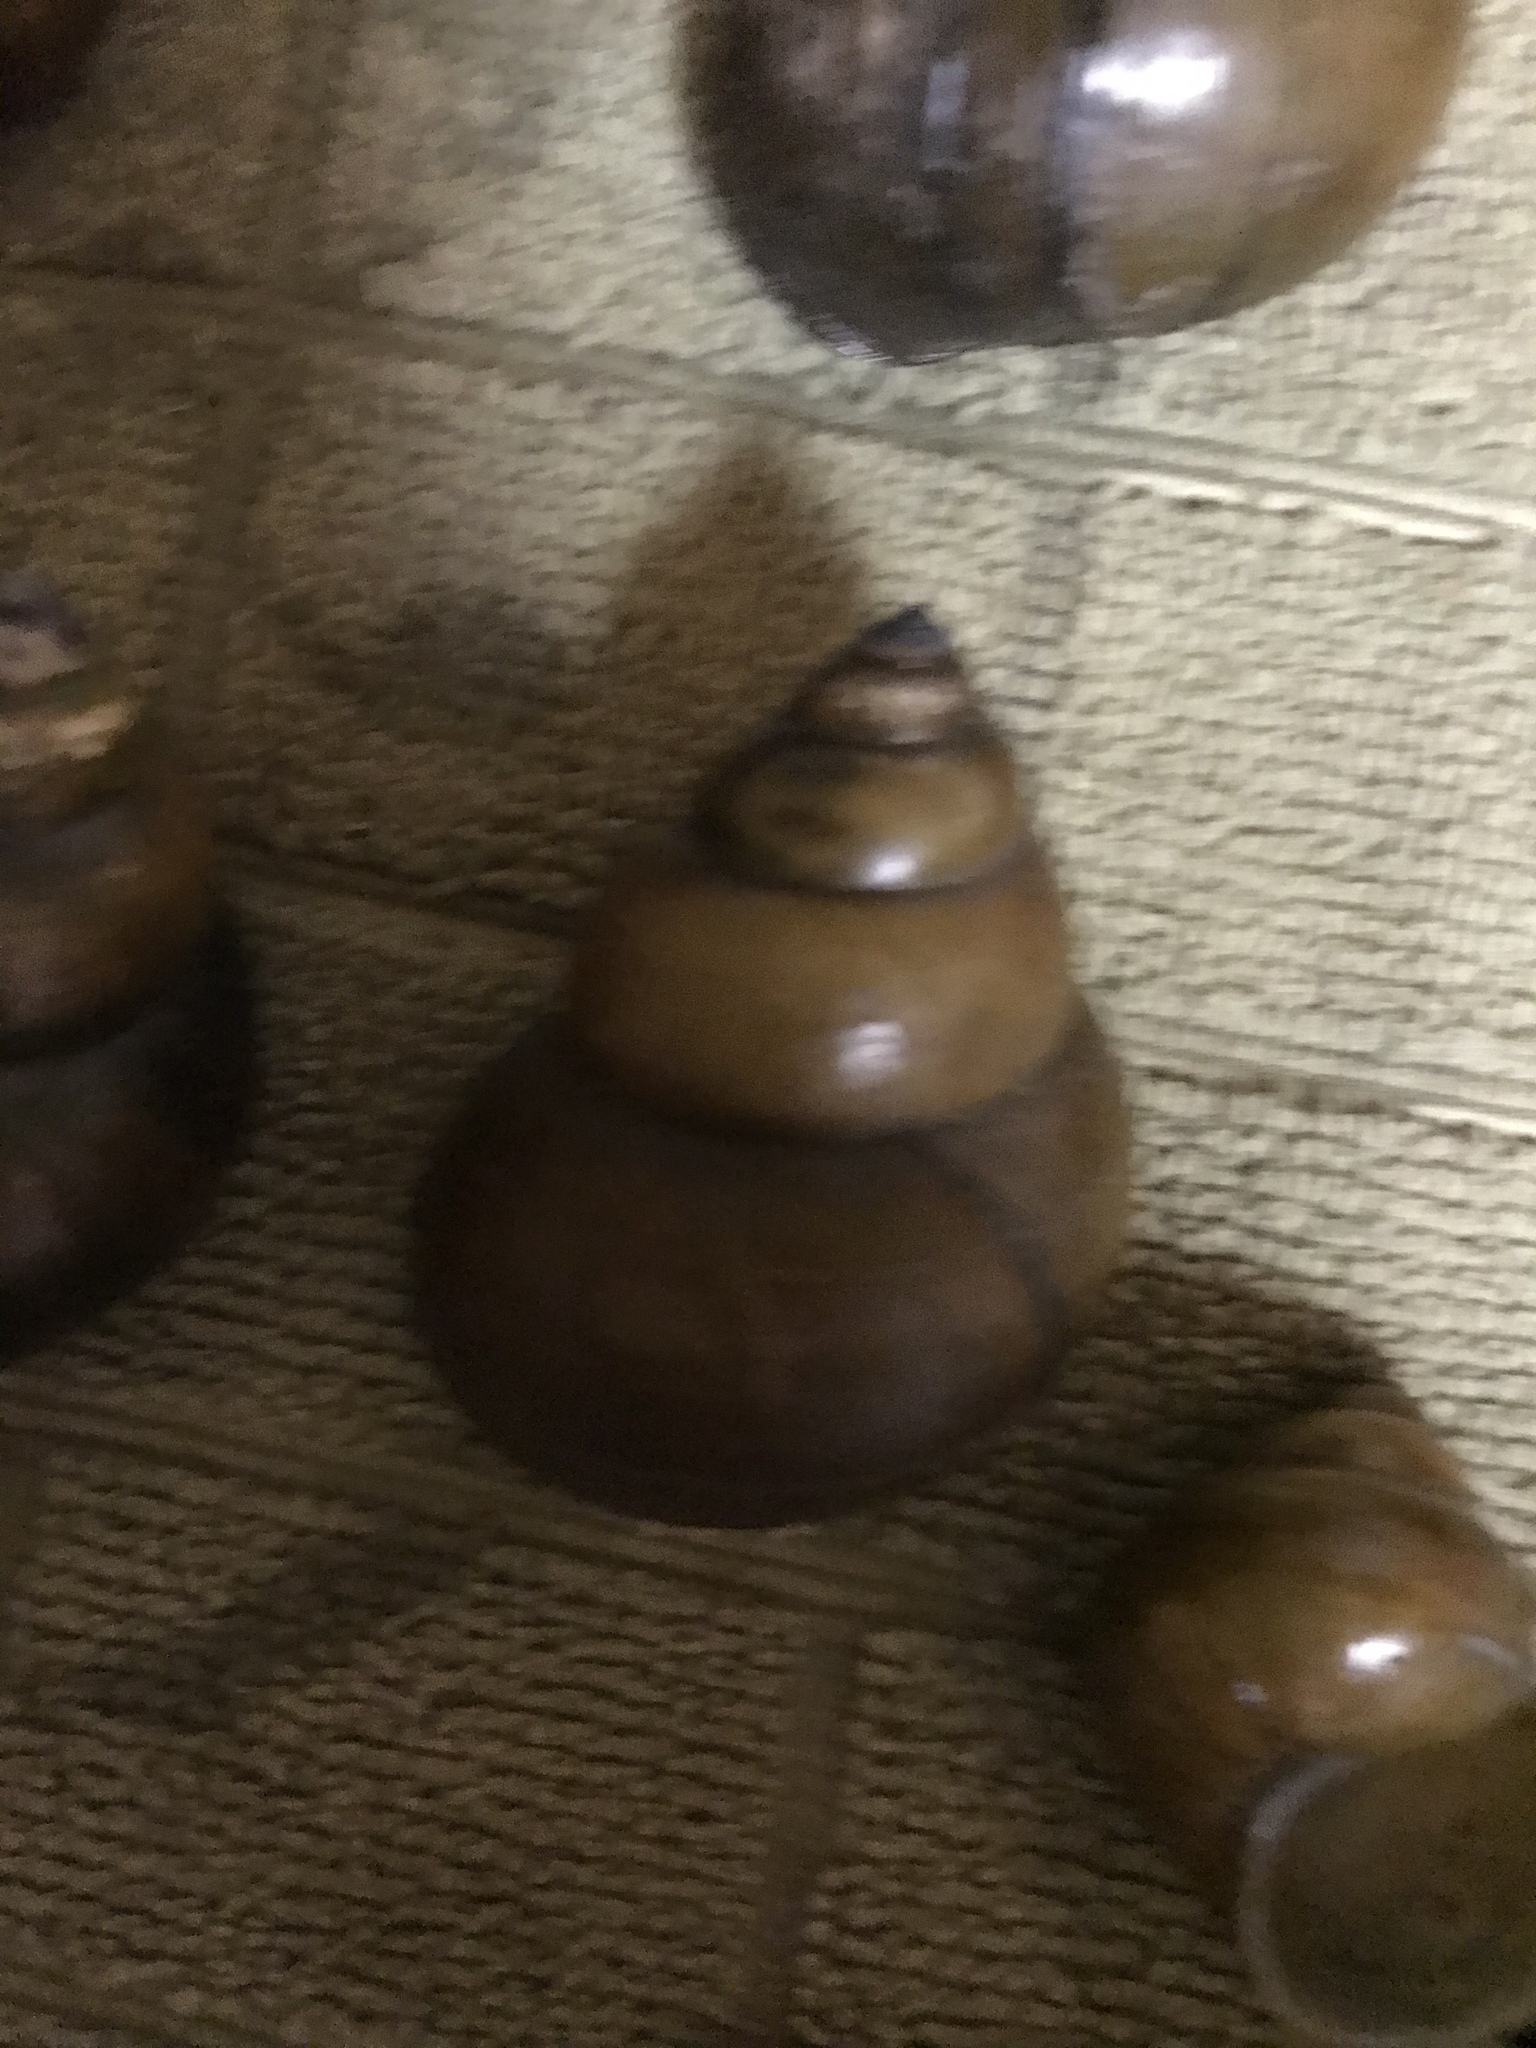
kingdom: Animalia
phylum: Mollusca
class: Gastropoda
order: Architaenioglossa
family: Viviparidae
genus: Cipangopaludina
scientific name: Cipangopaludina chinensis
